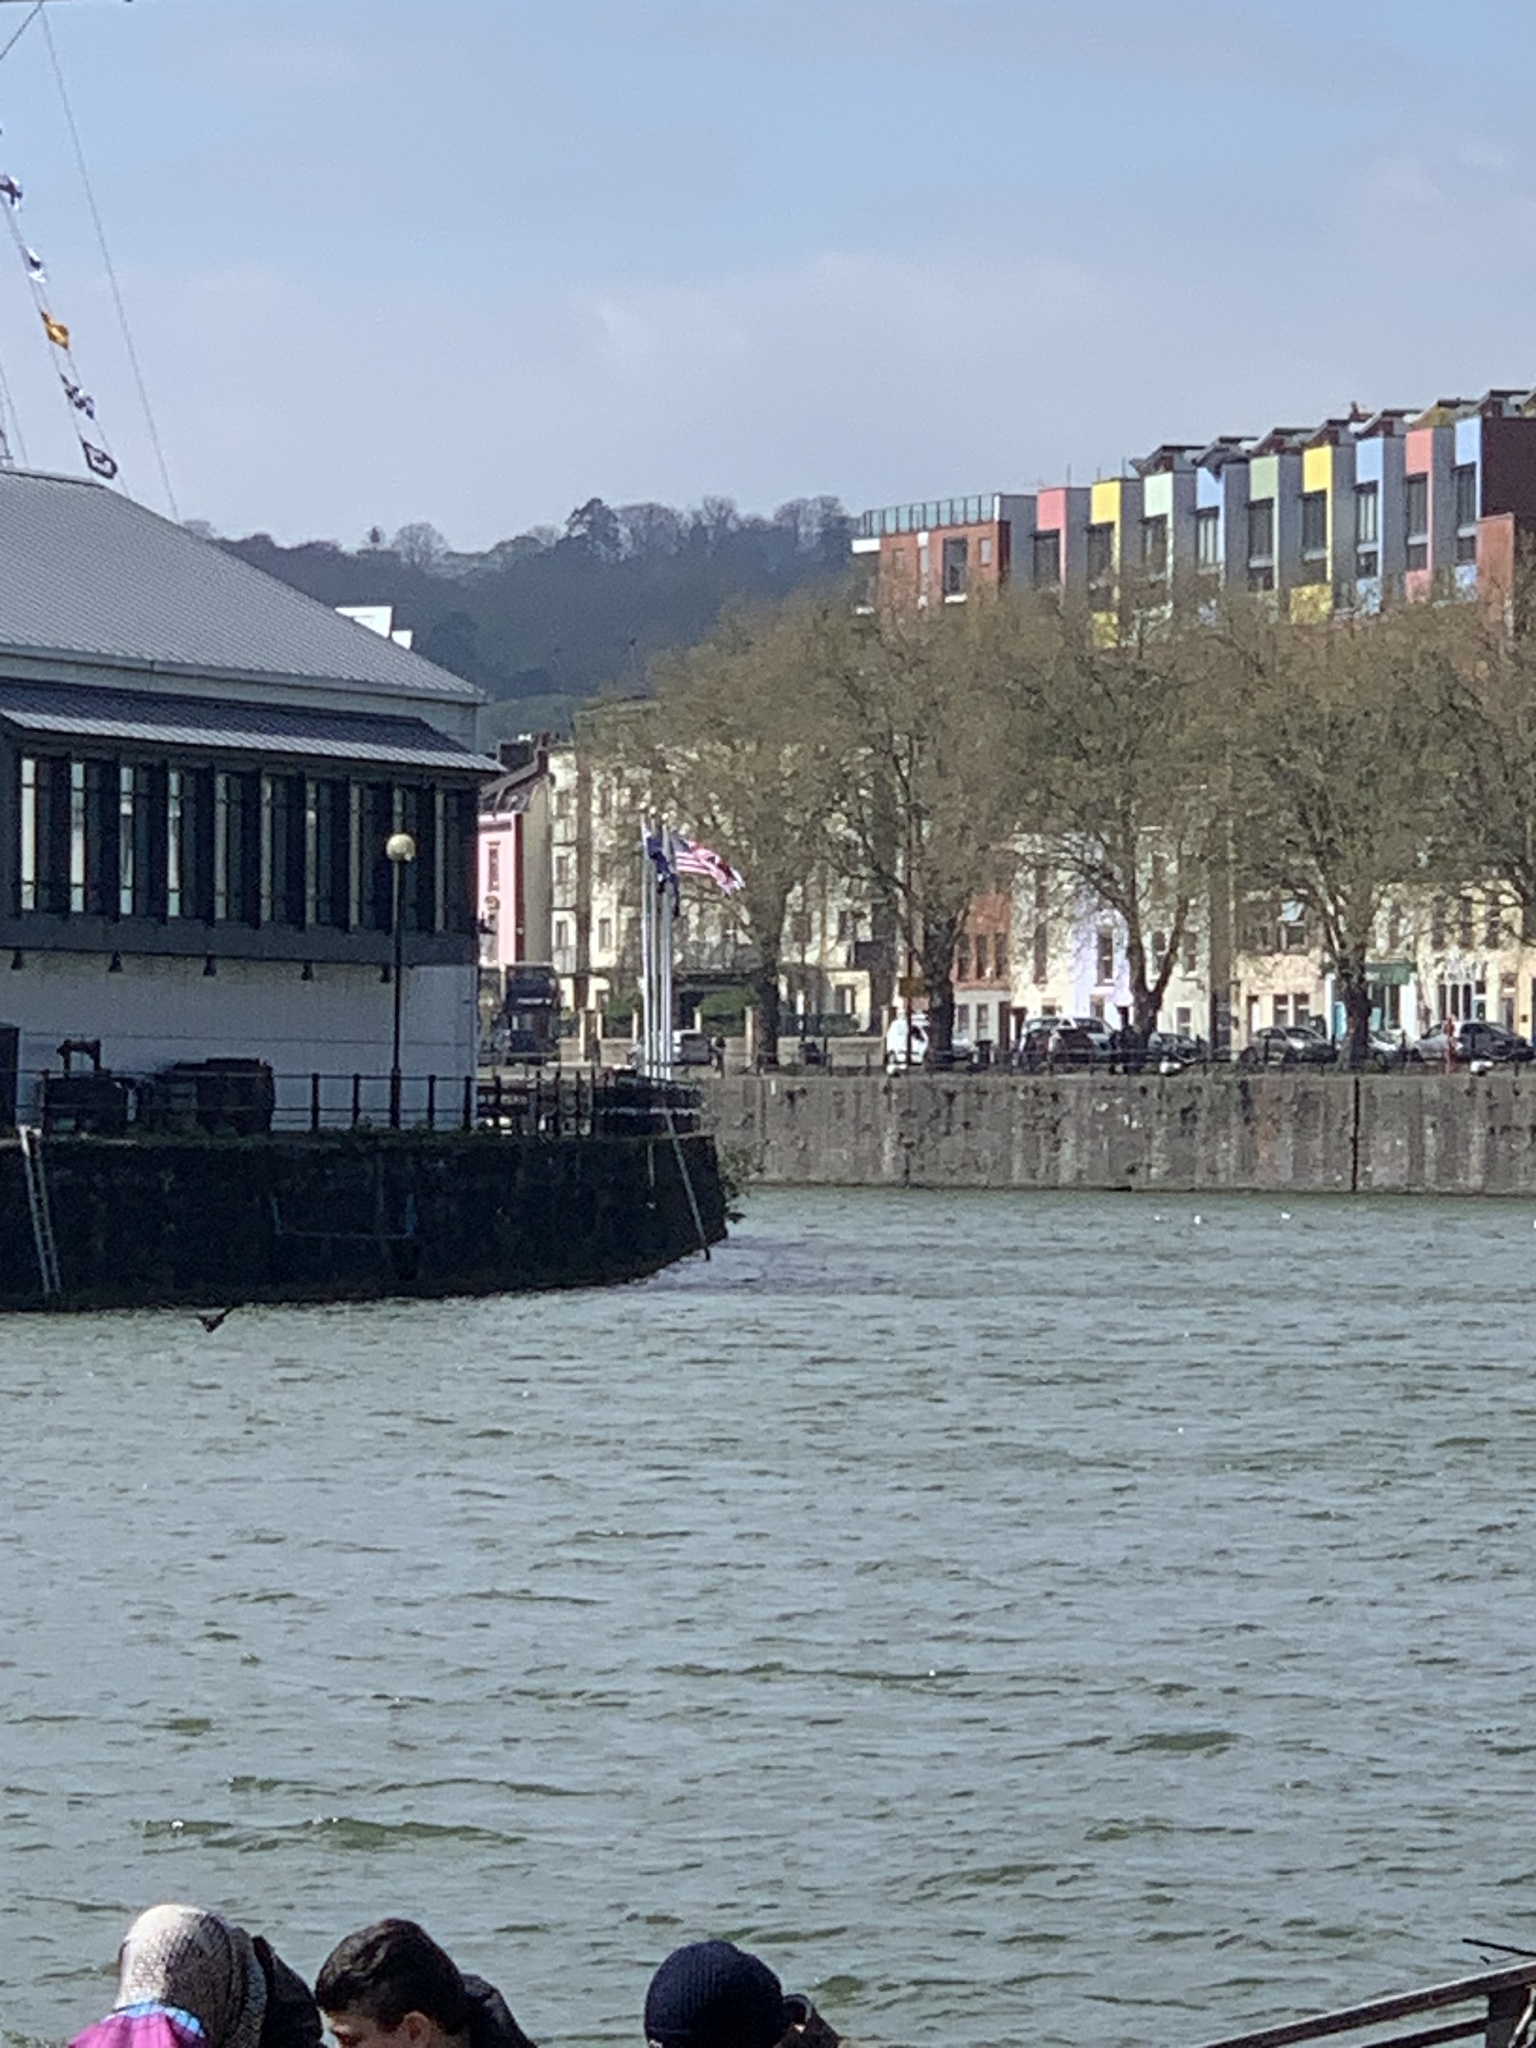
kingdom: Animalia
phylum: Chordata
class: Aves
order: Suliformes
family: Phalacrocoracidae
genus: Phalacrocorax
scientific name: Phalacrocorax carbo
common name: Great cormorant
